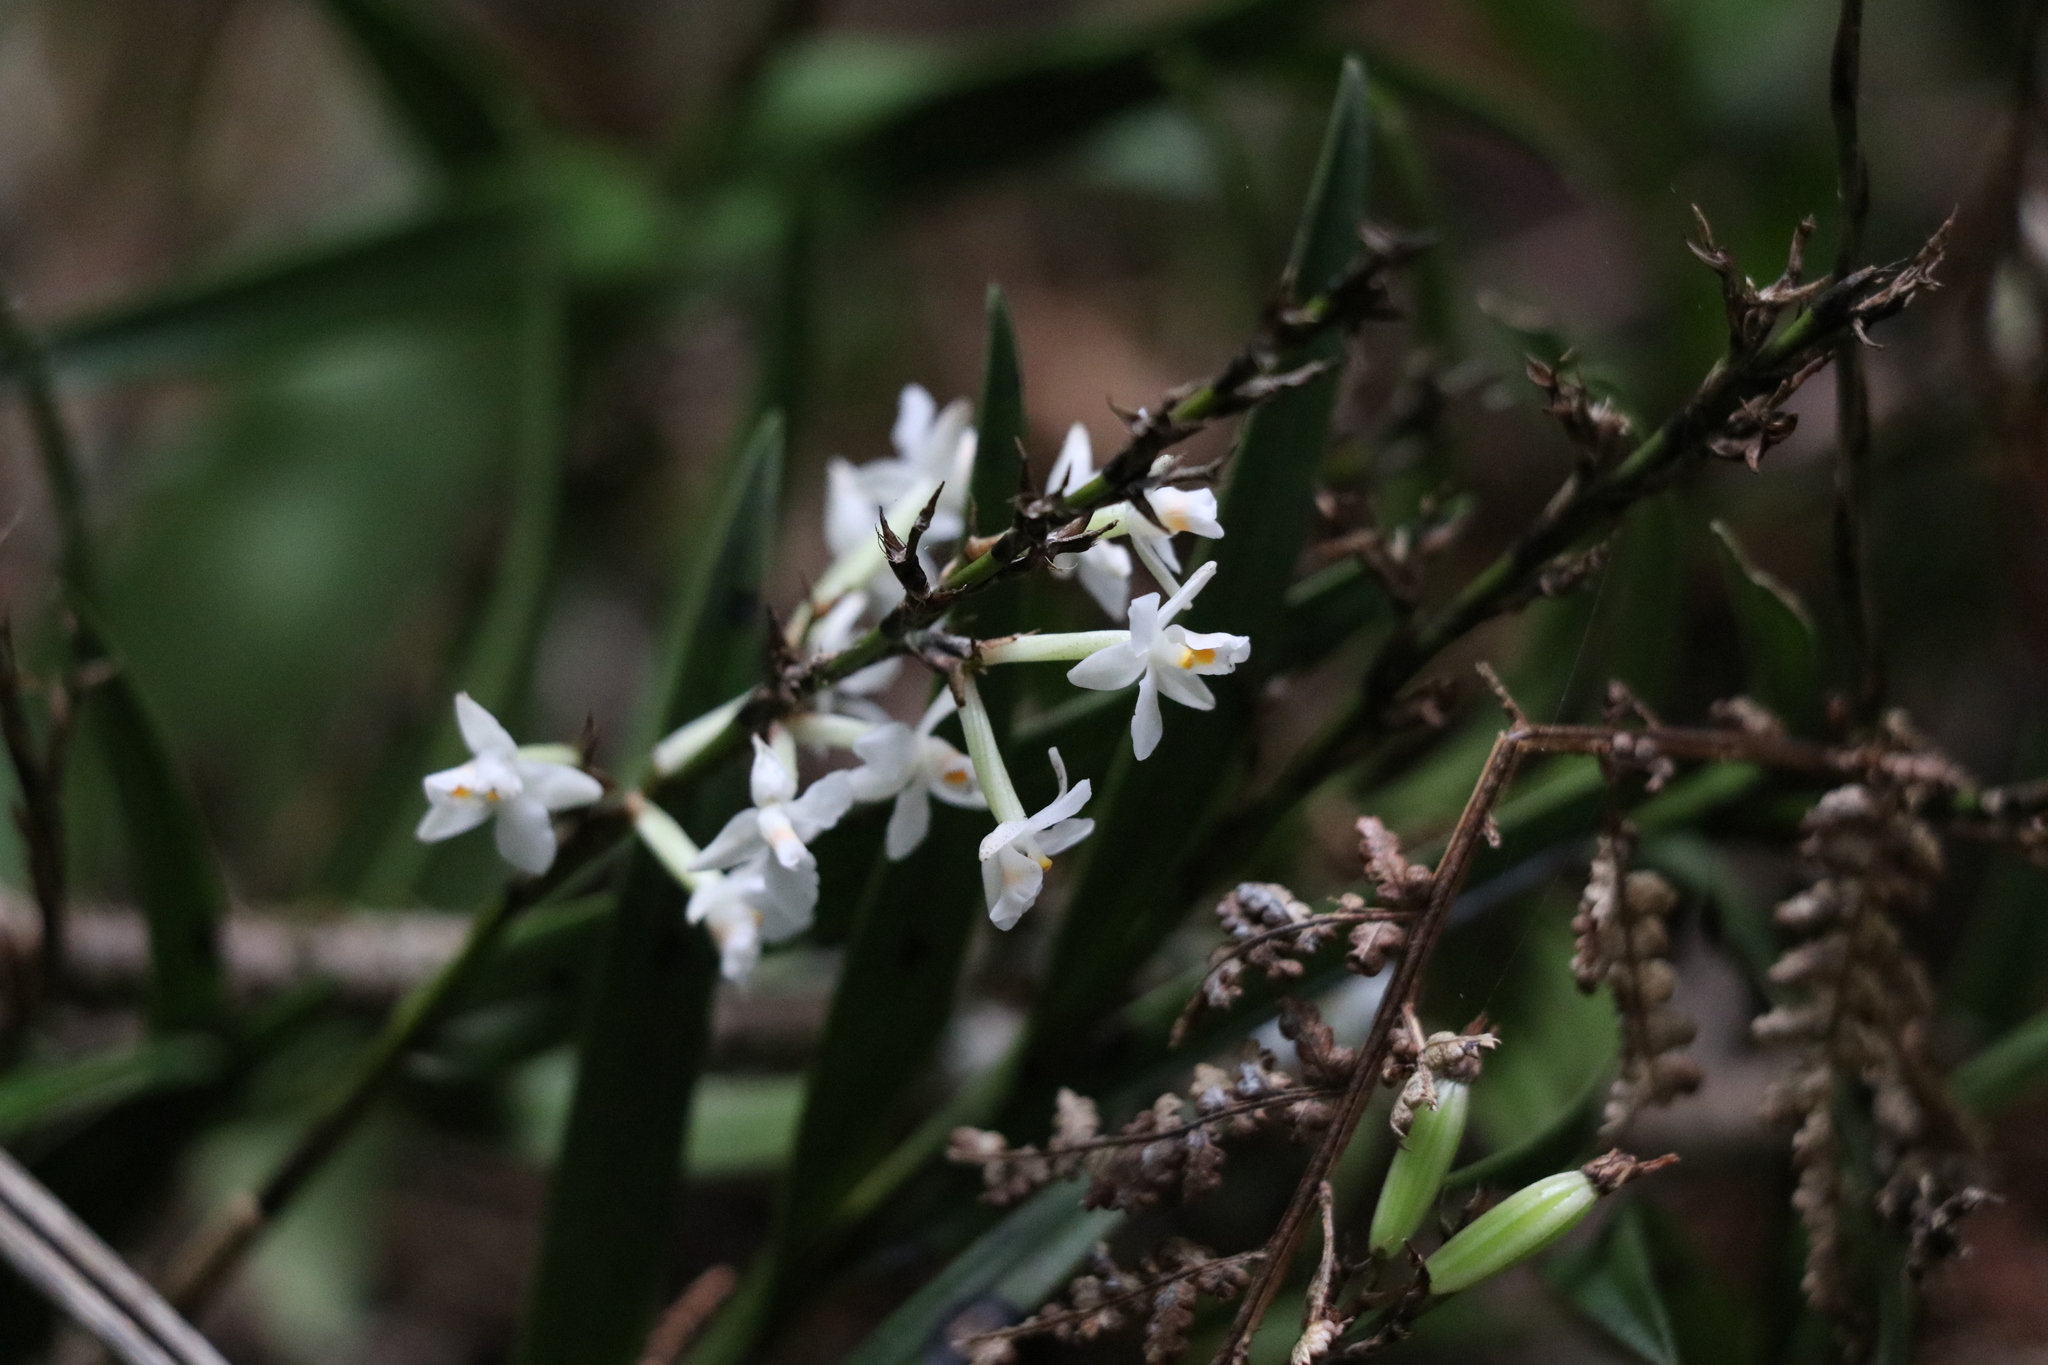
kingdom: Plantae
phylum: Tracheophyta
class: Liliopsida
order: Asparagales
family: Orchidaceae
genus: Earina
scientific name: Earina autumnalis
